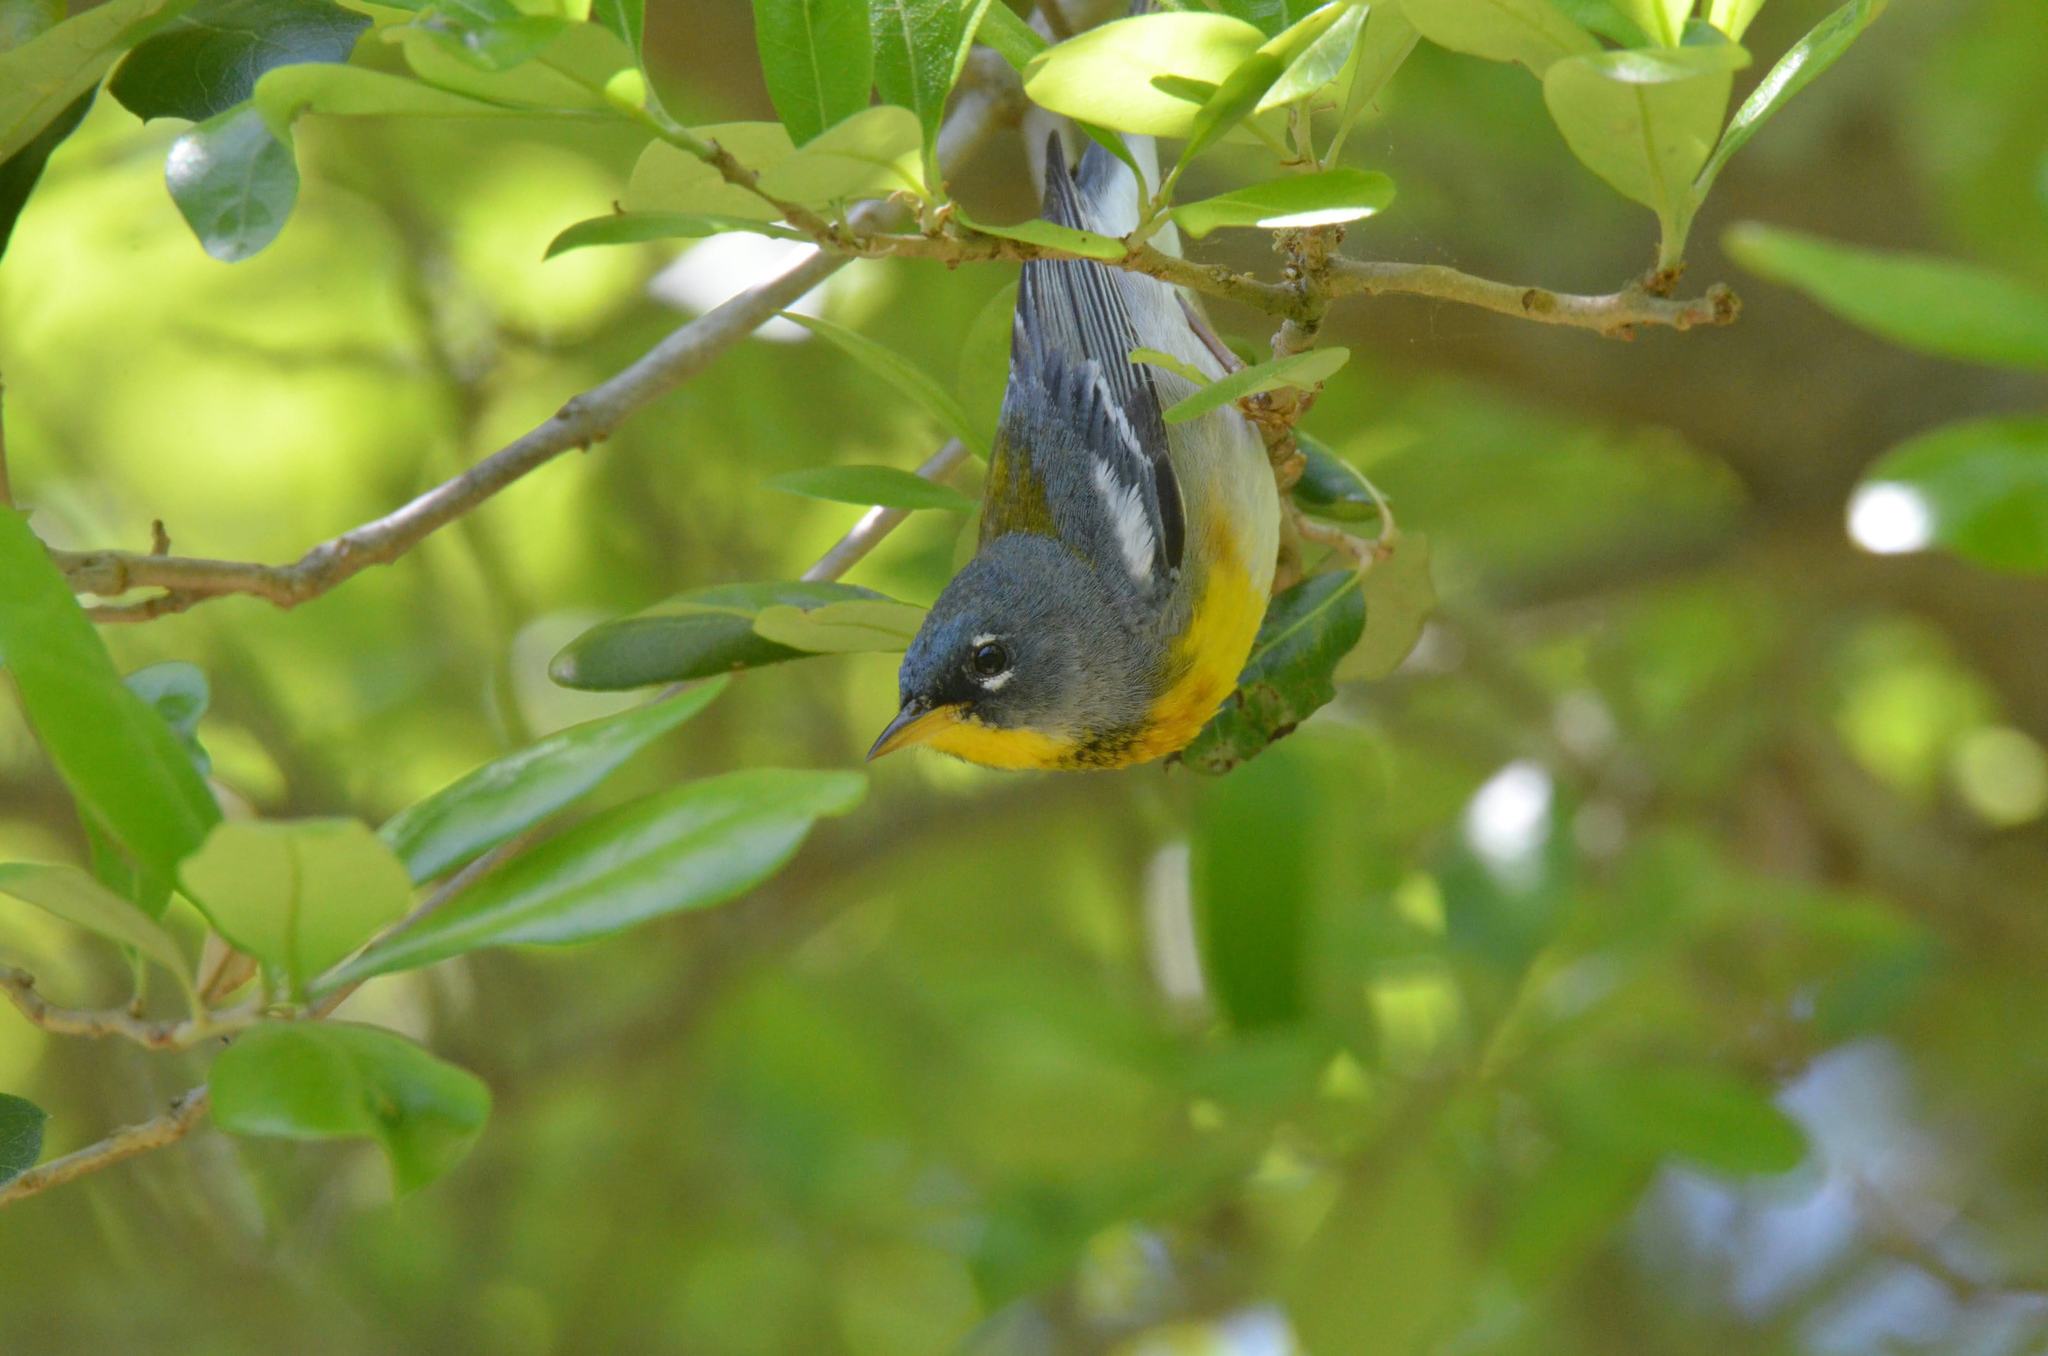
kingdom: Animalia
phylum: Chordata
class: Aves
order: Passeriformes
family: Parulidae
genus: Setophaga
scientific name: Setophaga americana
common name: Northern parula
